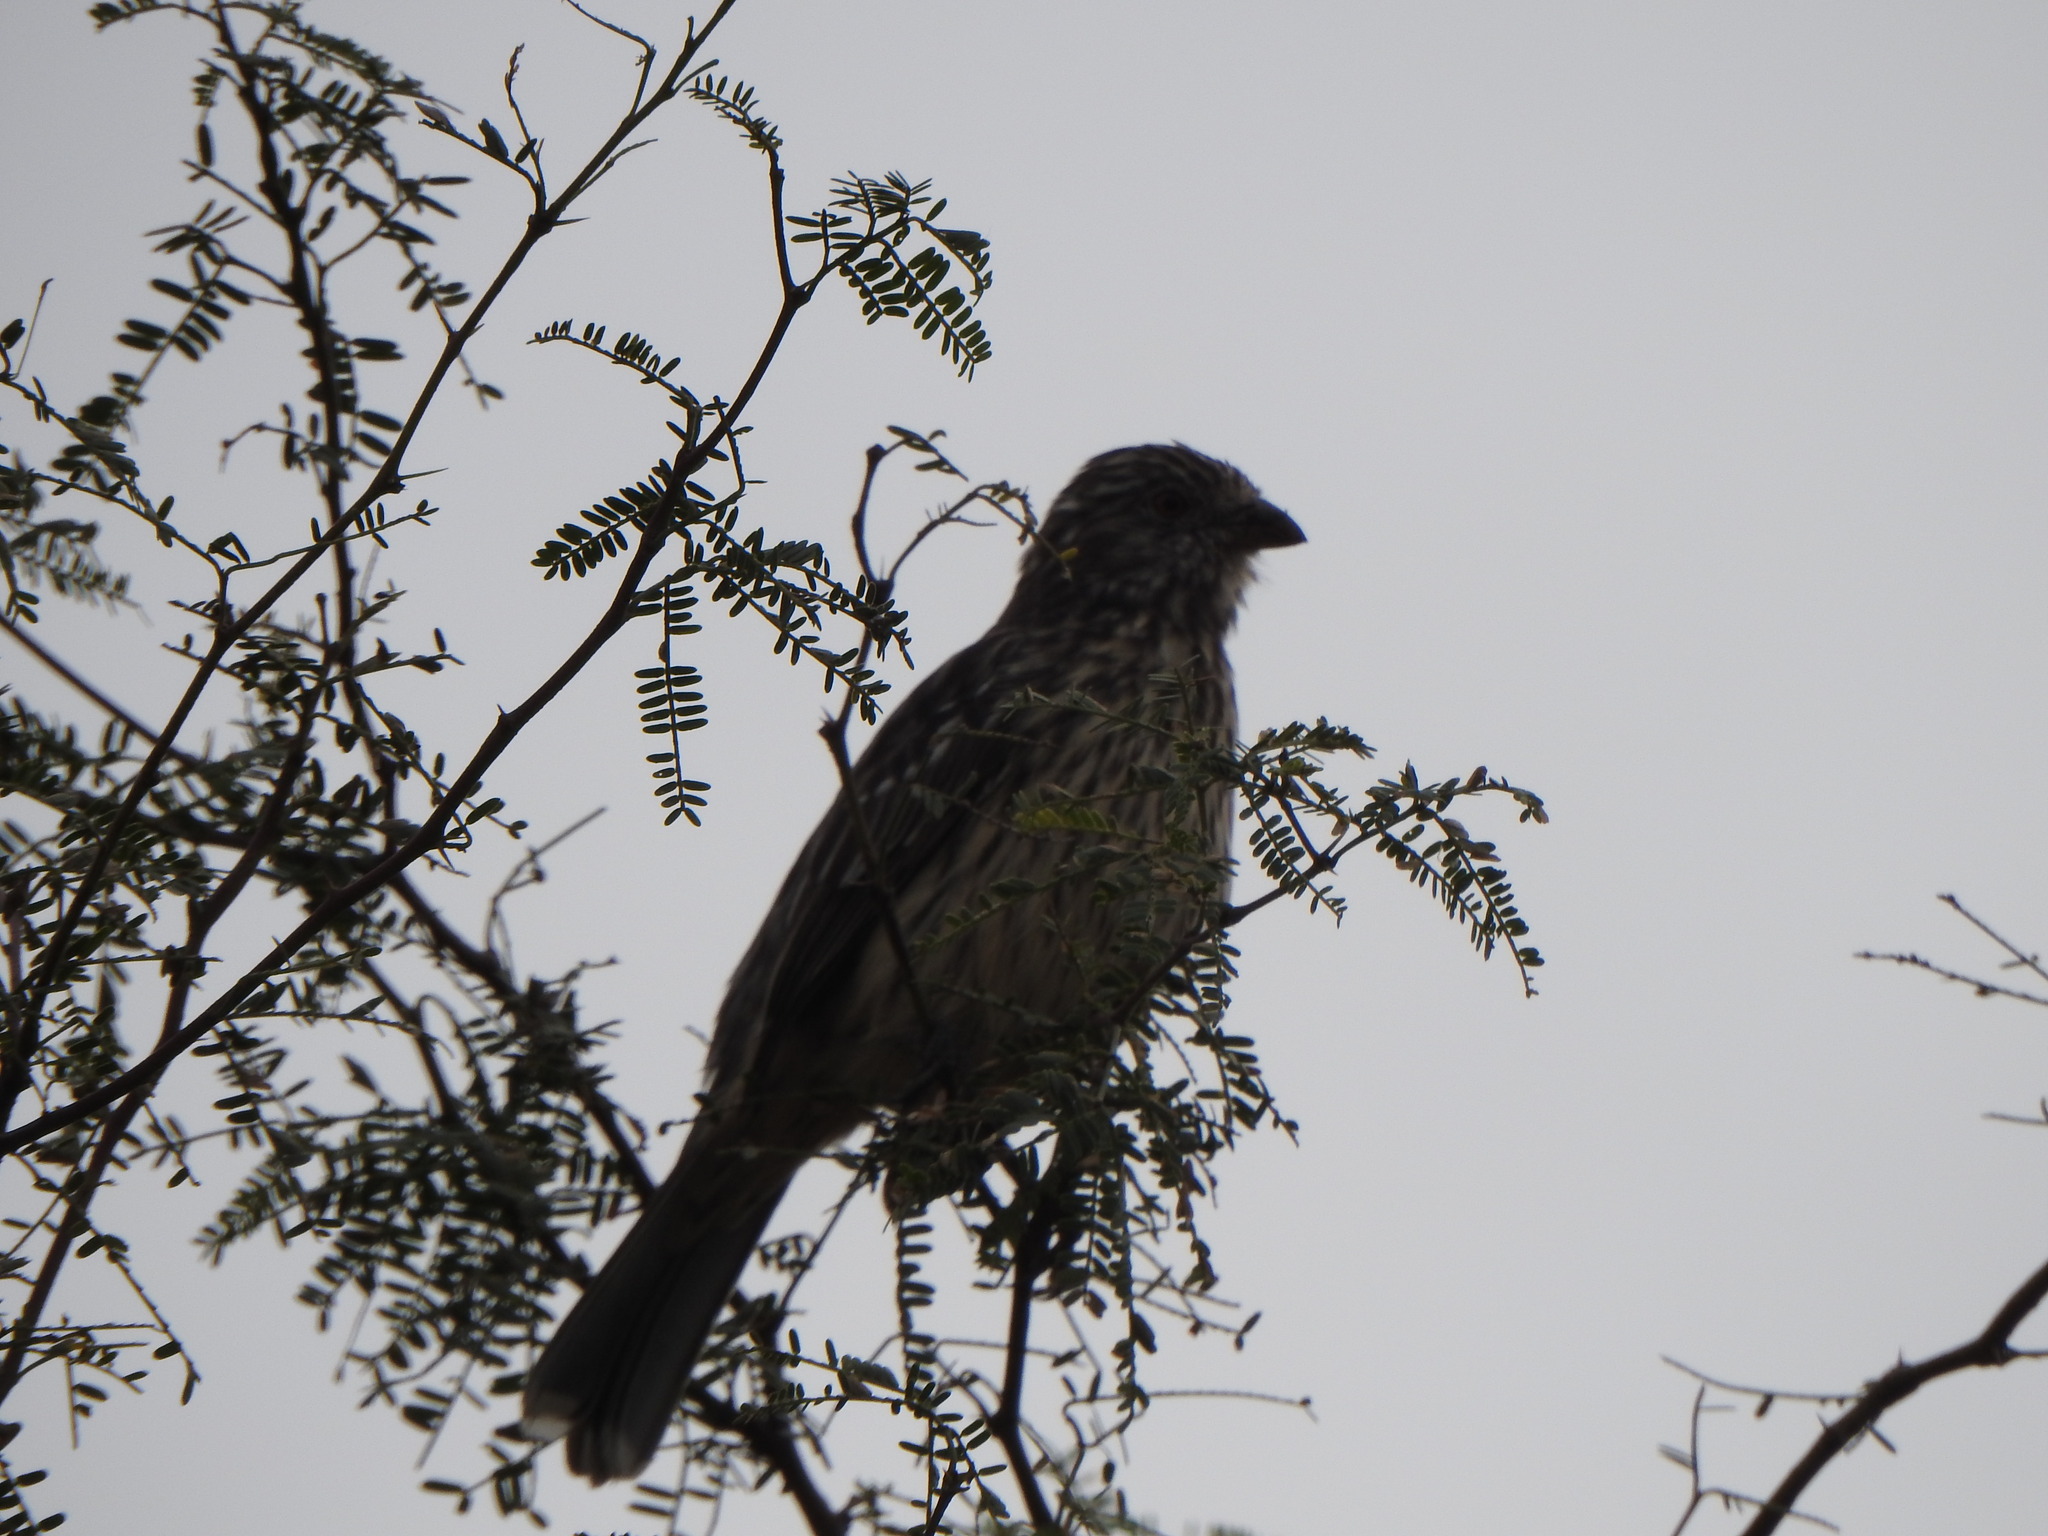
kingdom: Animalia
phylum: Chordata
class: Aves
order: Passeriformes
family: Cotingidae
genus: Phytotoma
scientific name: Phytotoma rutila
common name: White-tipped plantcutter
